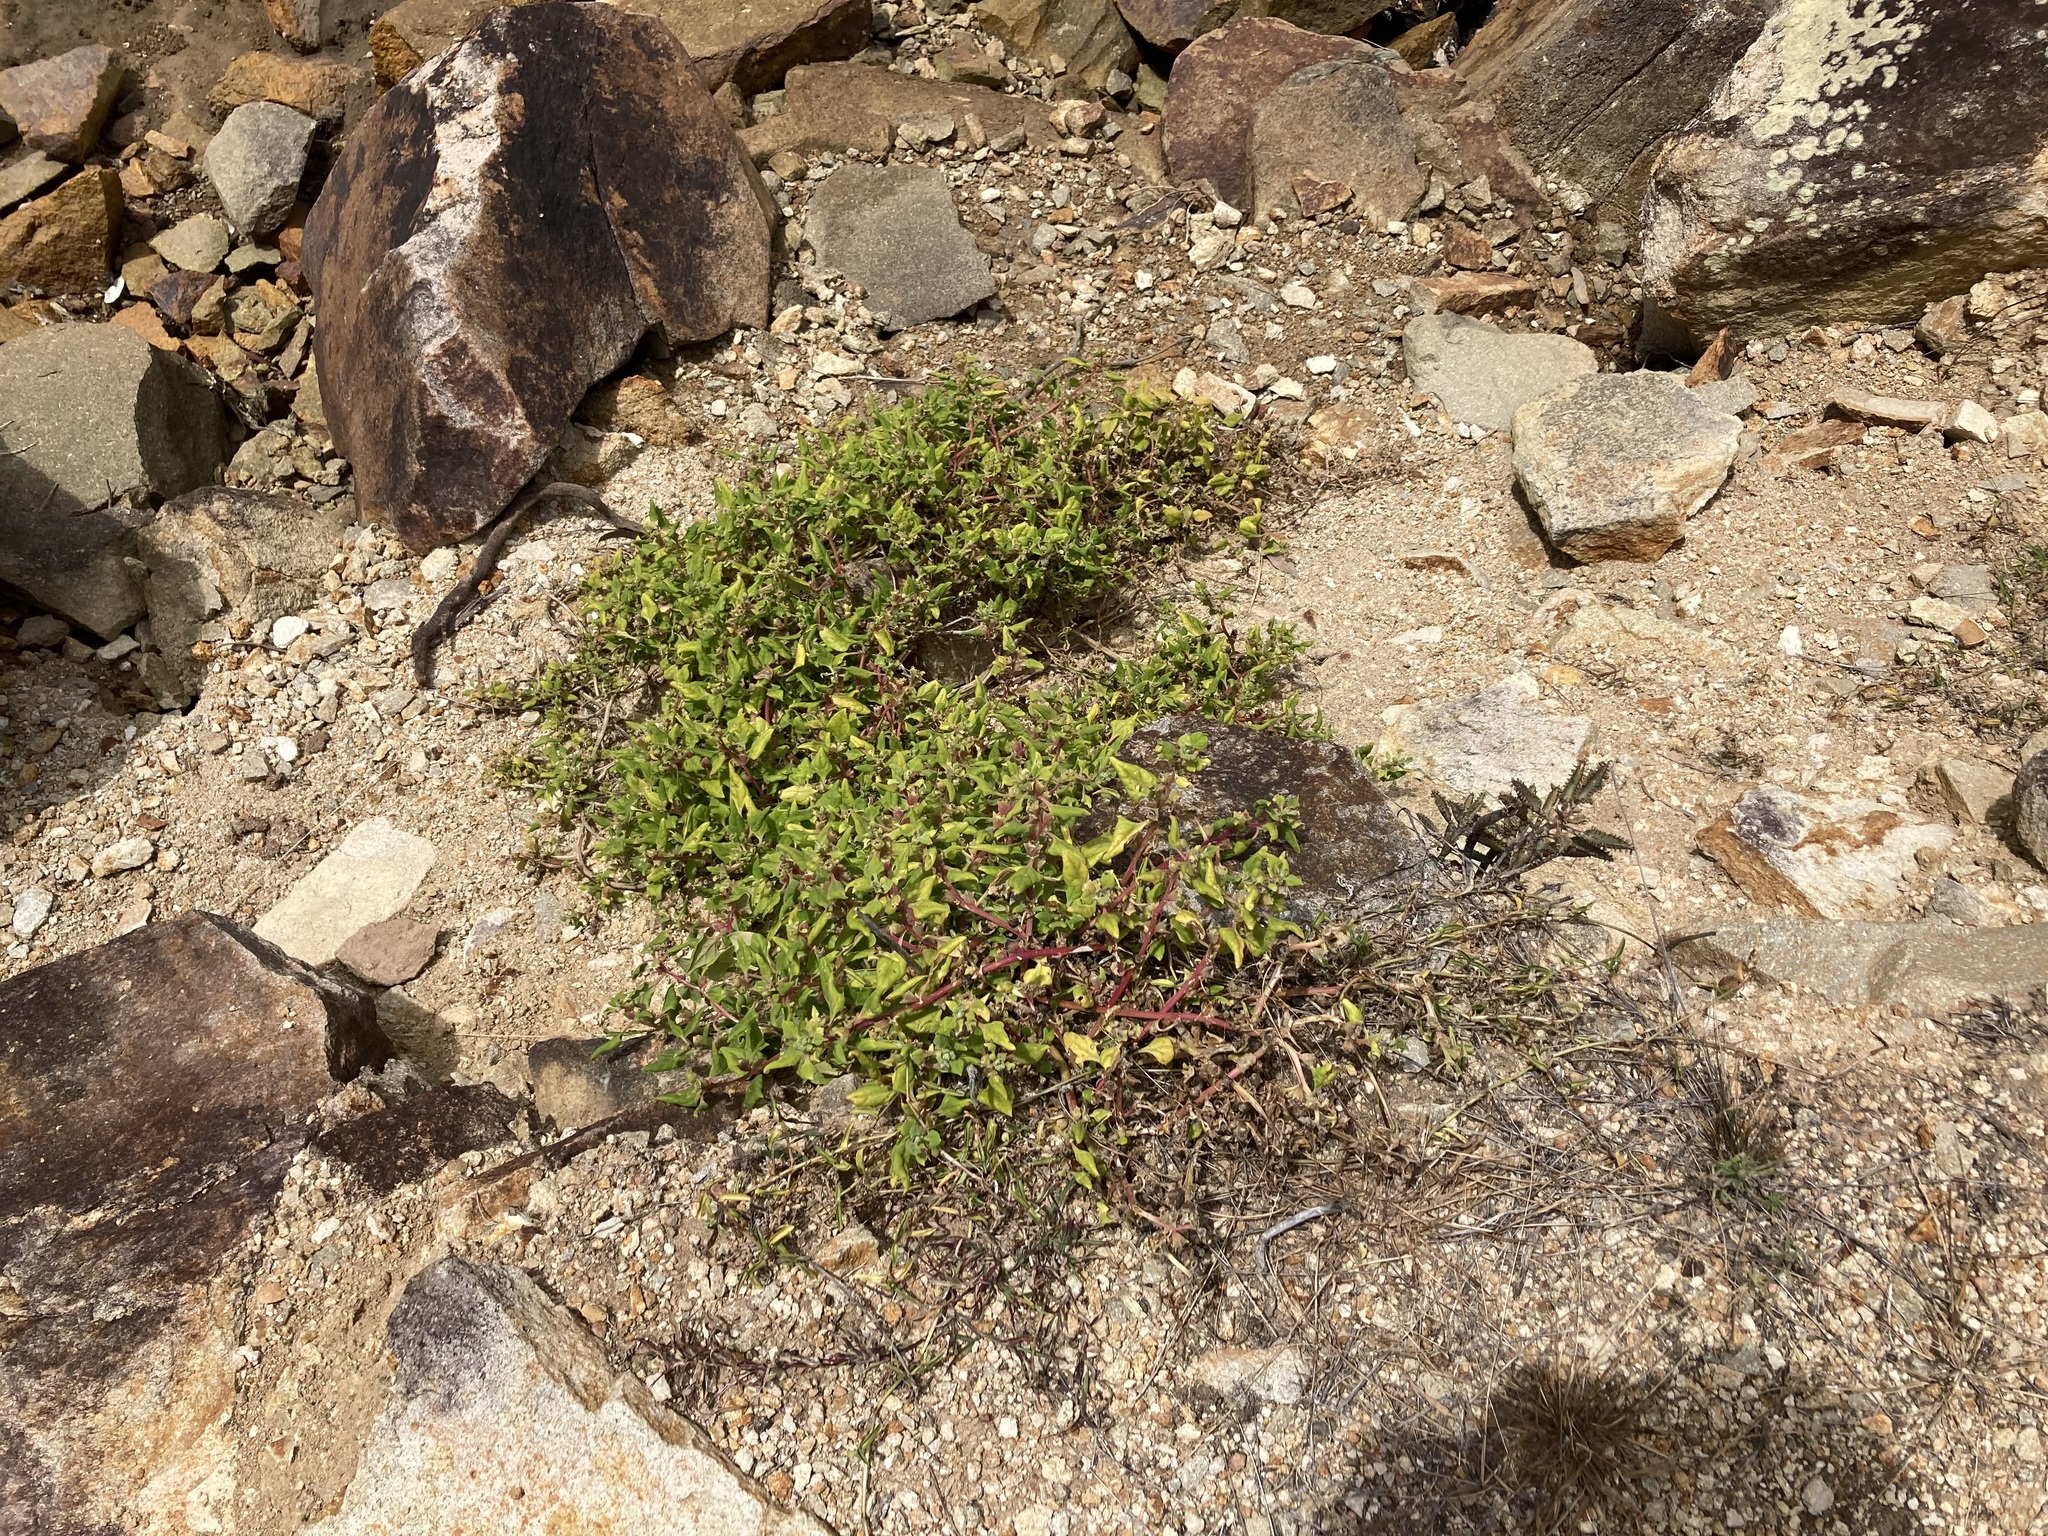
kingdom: Plantae
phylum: Tracheophyta
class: Magnoliopsida
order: Caryophyllales
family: Aizoaceae
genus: Tetragonia
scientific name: Tetragonia tetragonoides
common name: New zealand-spinach
